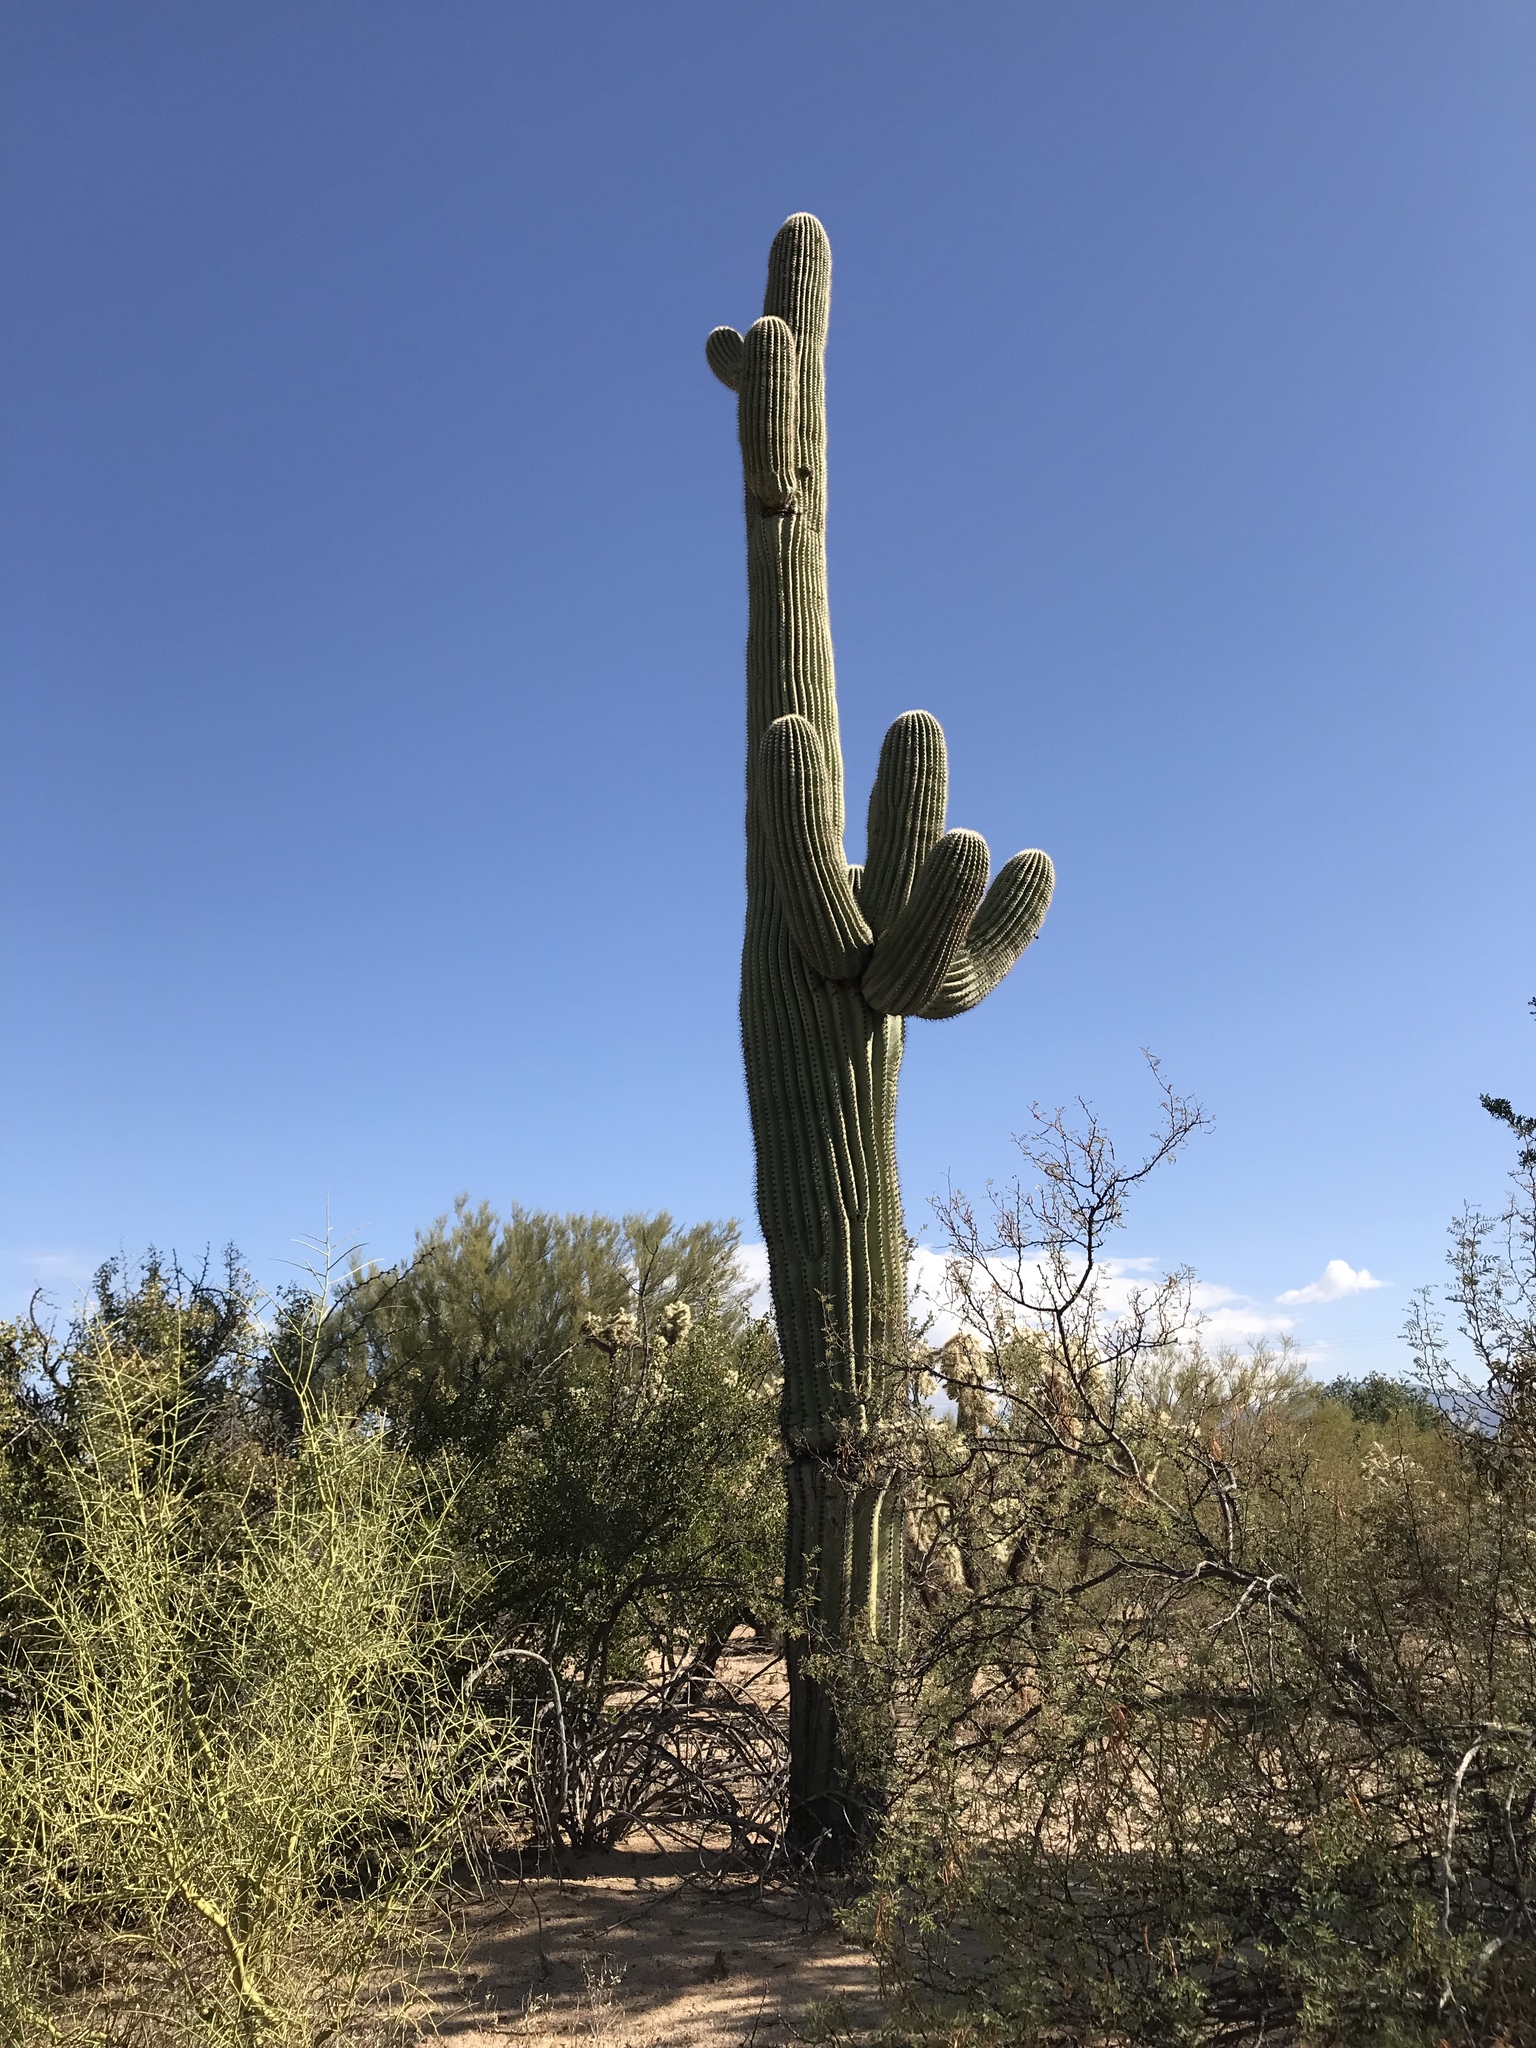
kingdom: Plantae
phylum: Tracheophyta
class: Magnoliopsida
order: Caryophyllales
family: Cactaceae
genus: Carnegiea
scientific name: Carnegiea gigantea
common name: Saguaro
